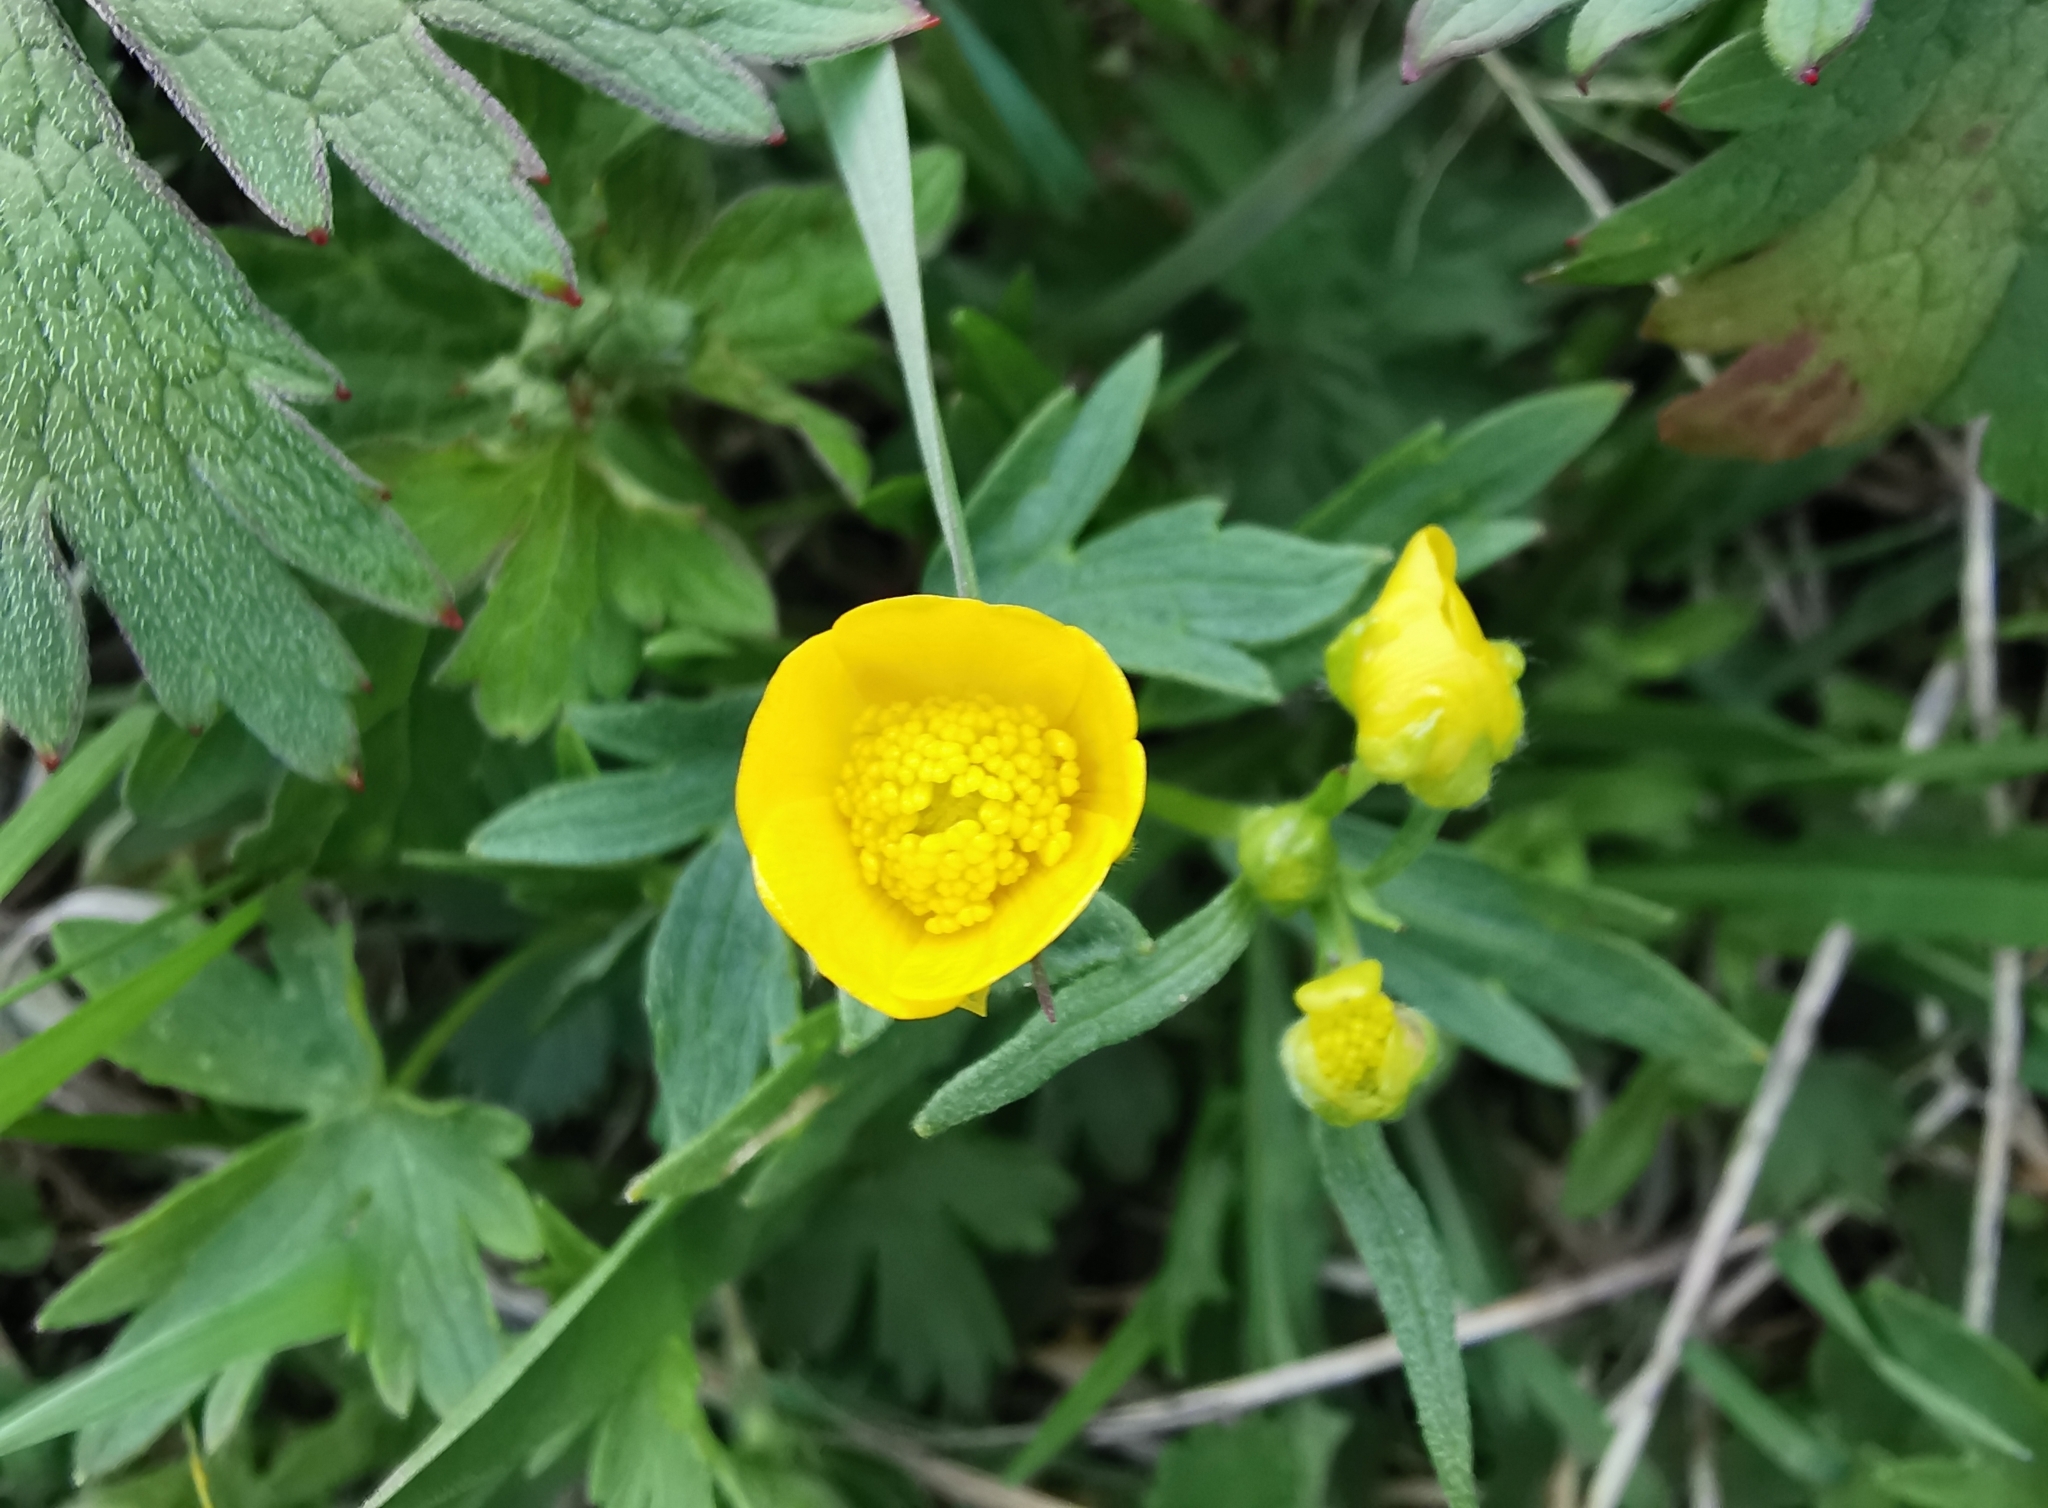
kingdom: Plantae
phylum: Tracheophyta
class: Magnoliopsida
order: Ranunculales
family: Ranunculaceae
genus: Ranunculus
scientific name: Ranunculus repens
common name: Creeping buttercup
